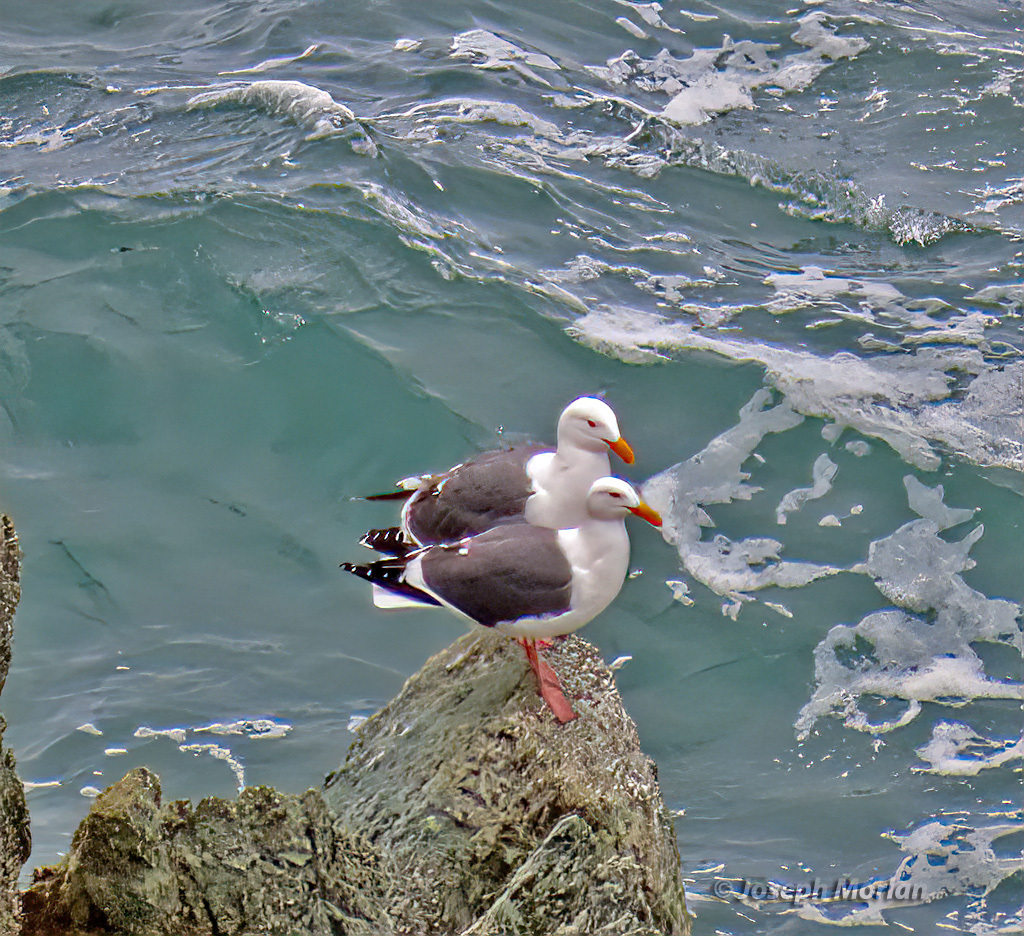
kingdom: Animalia
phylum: Chordata
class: Aves
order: Charadriiformes
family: Laridae
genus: Larus
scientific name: Larus occidentalis
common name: Western gull
